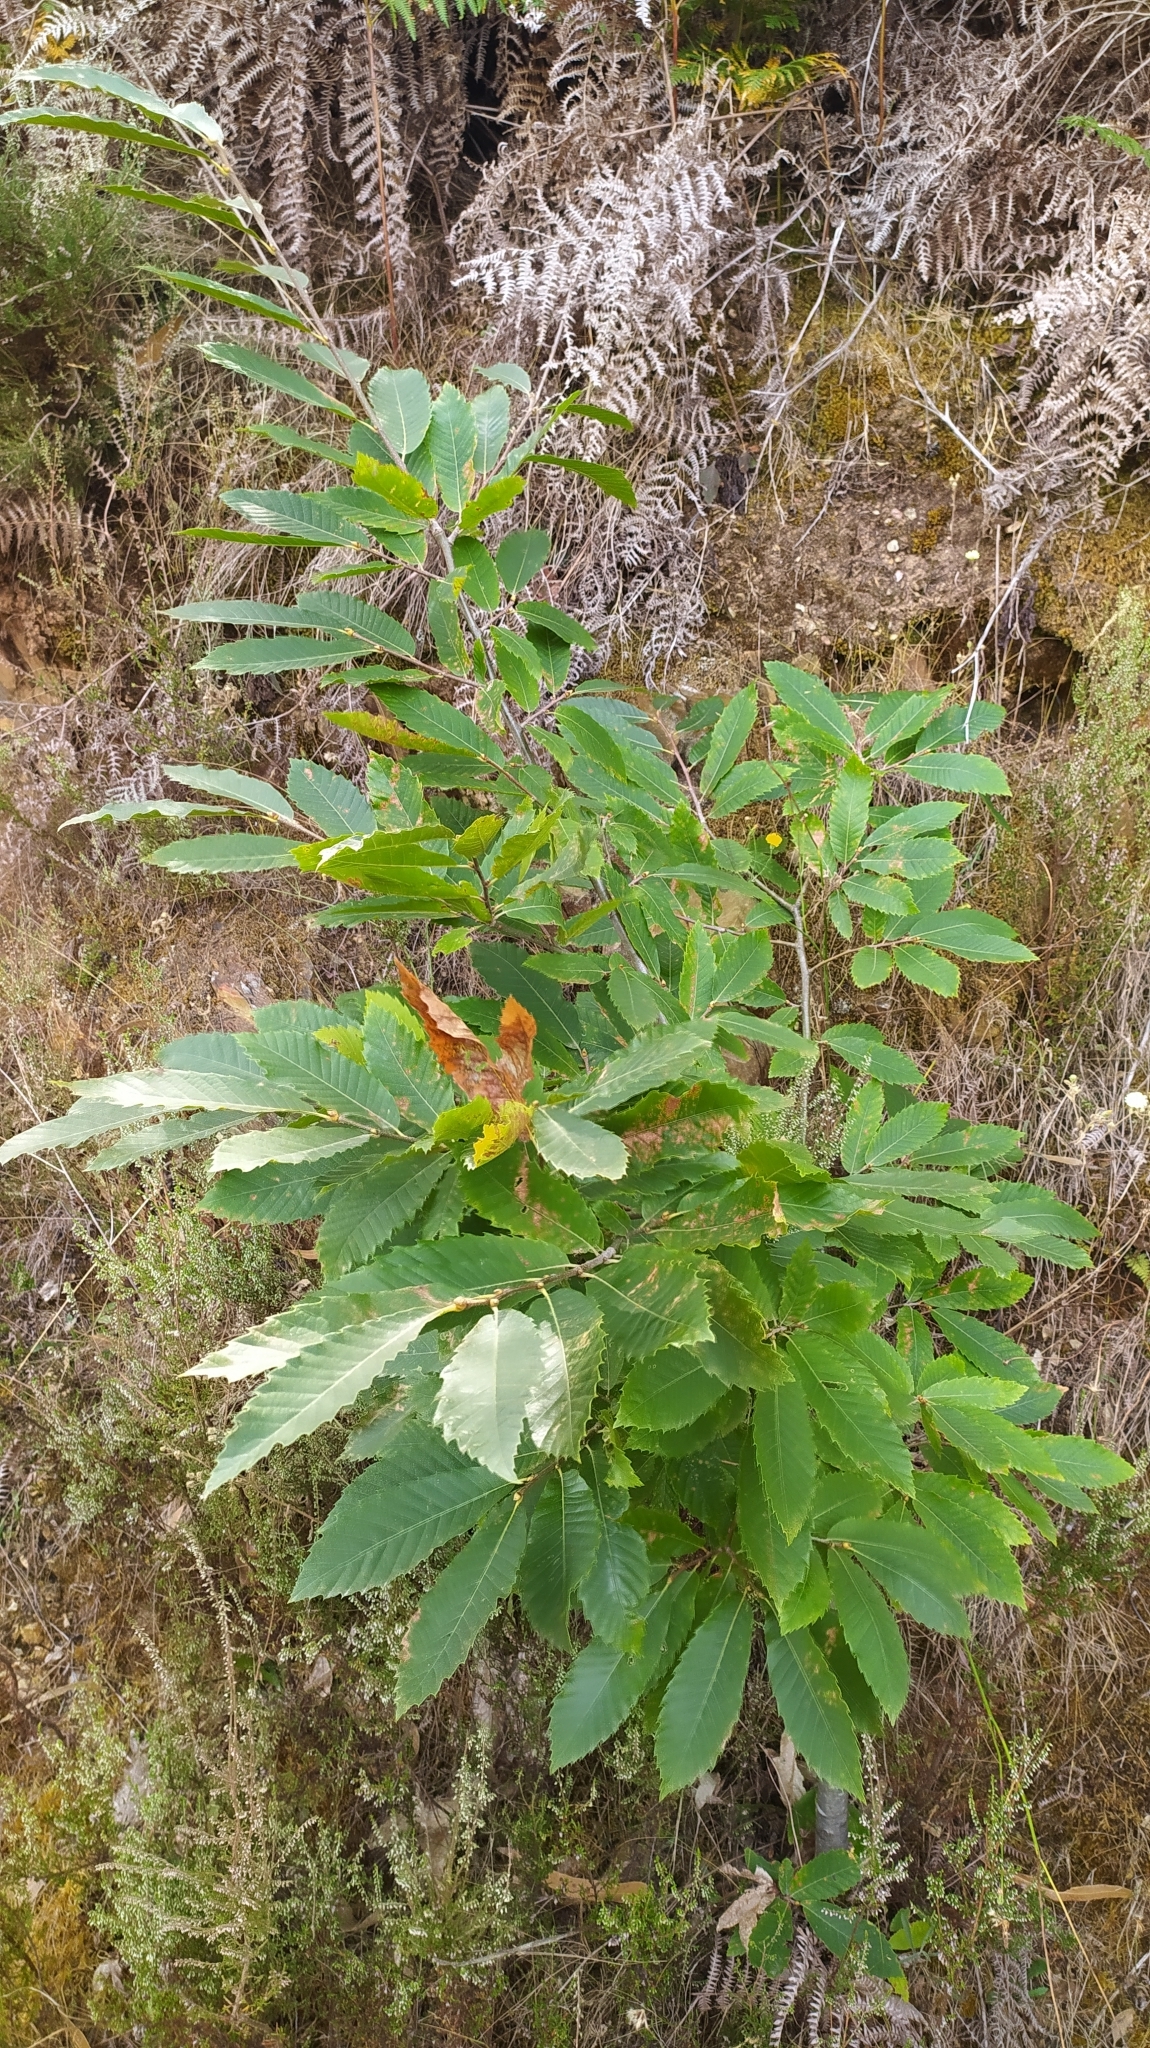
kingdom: Plantae
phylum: Tracheophyta
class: Magnoliopsida
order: Fagales
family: Fagaceae
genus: Castanea
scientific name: Castanea sativa
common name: Sweet chestnut
